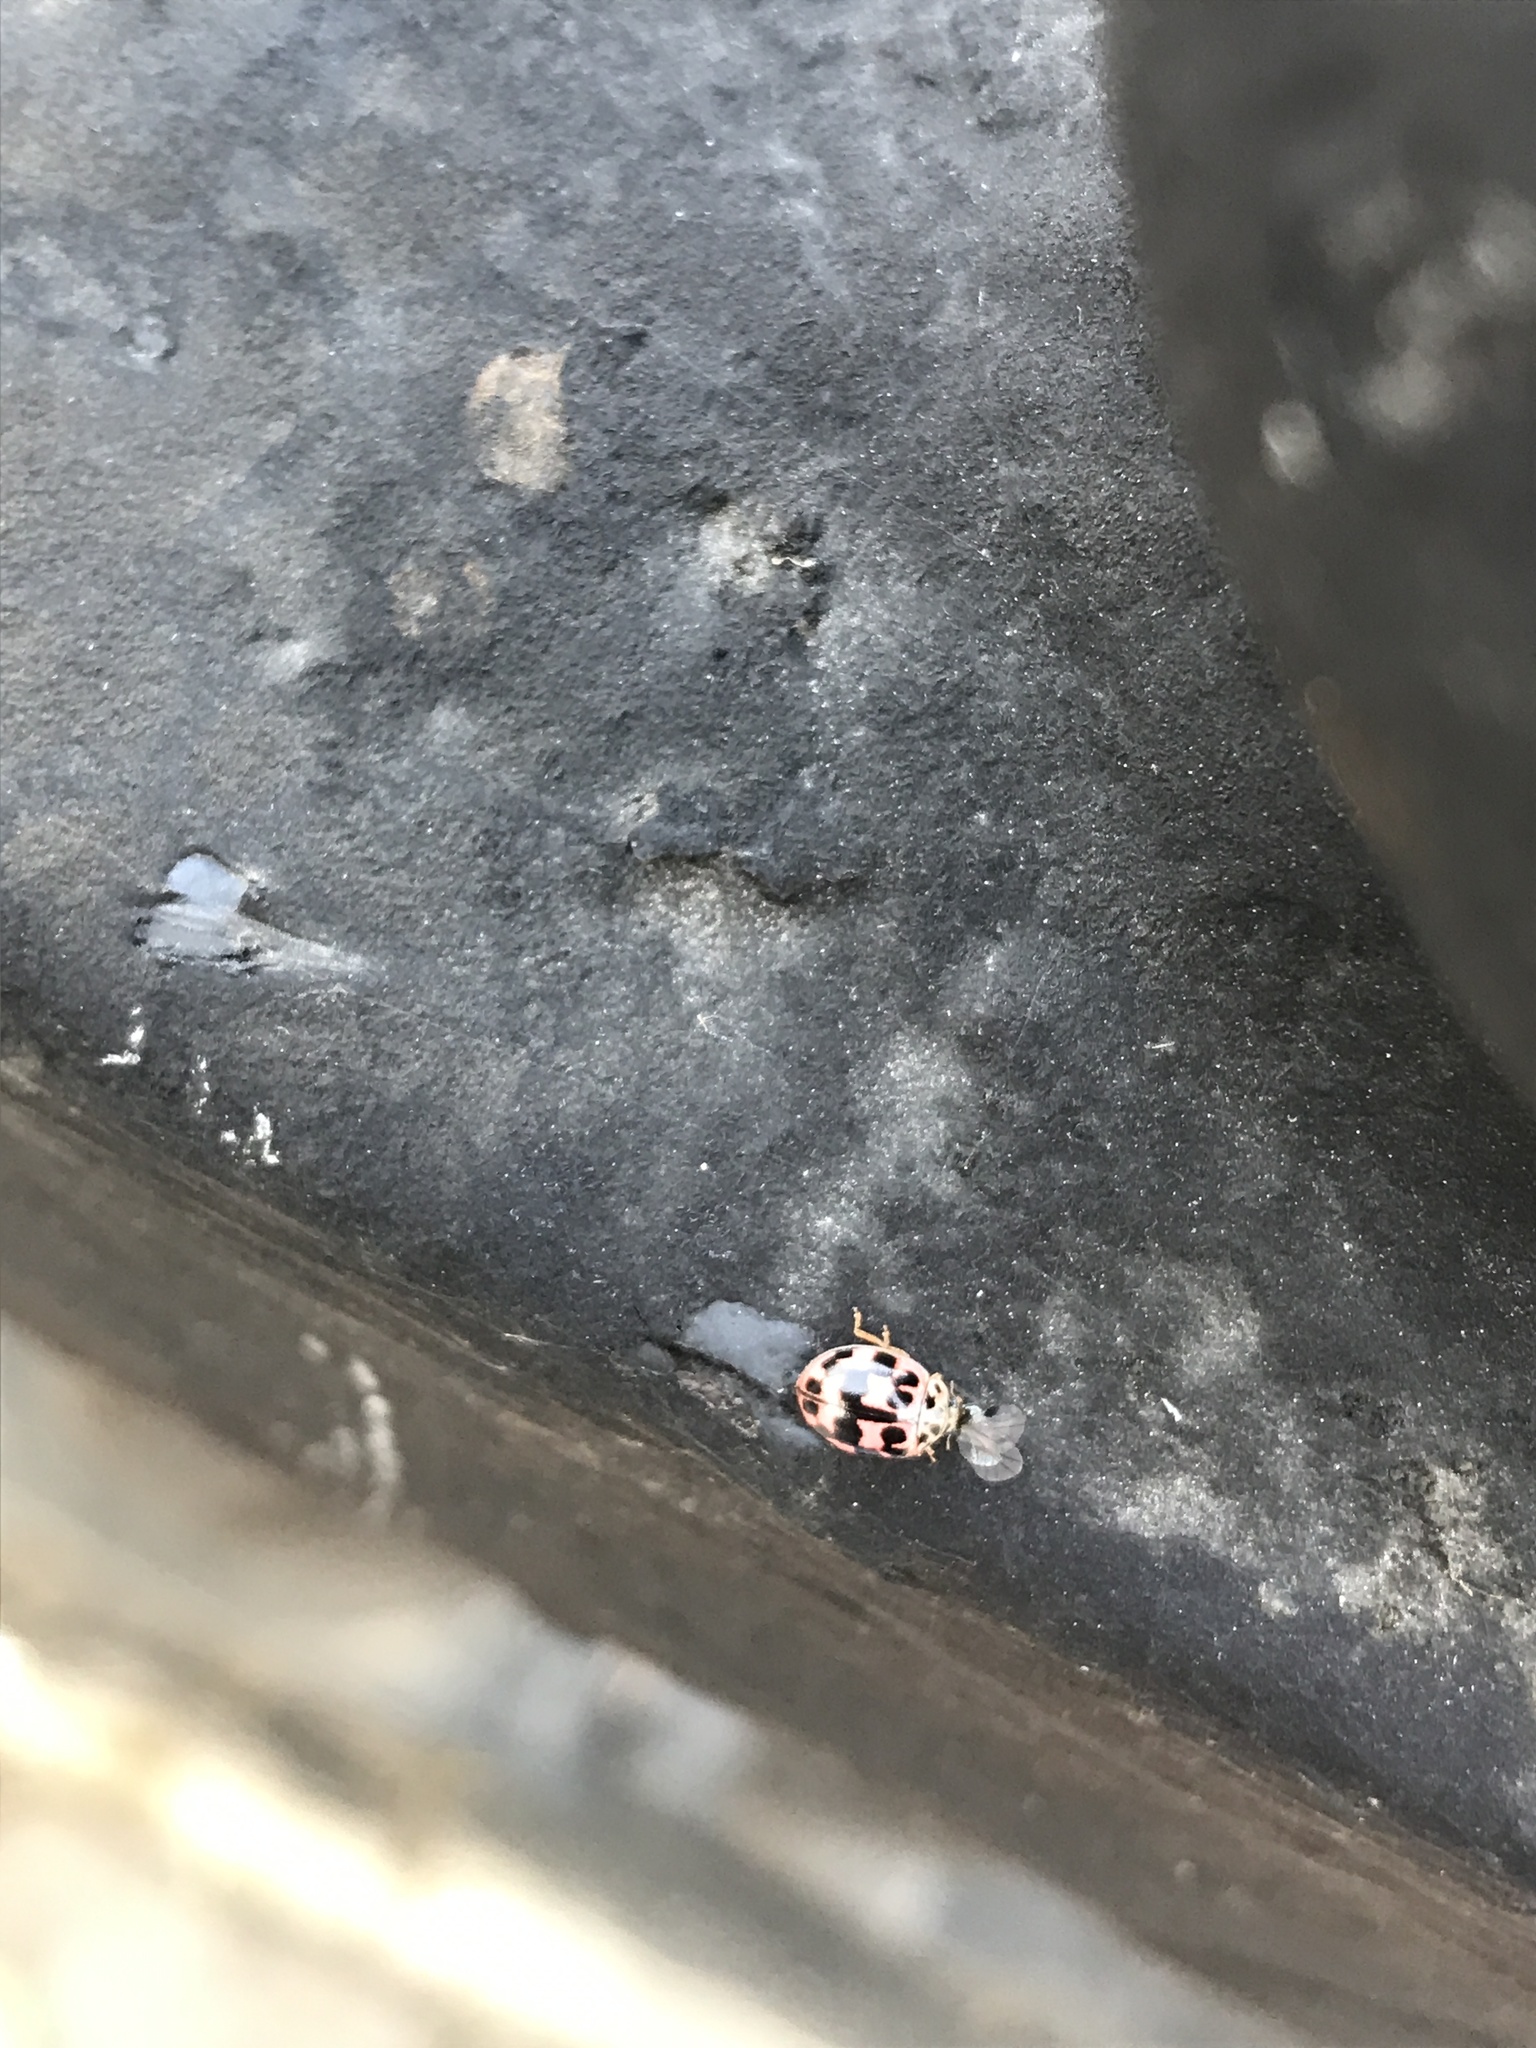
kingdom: Animalia
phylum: Arthropoda
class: Insecta
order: Coleoptera
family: Coccinellidae
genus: Oenopia
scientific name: Oenopia conglobata
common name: Ladybird beetle
